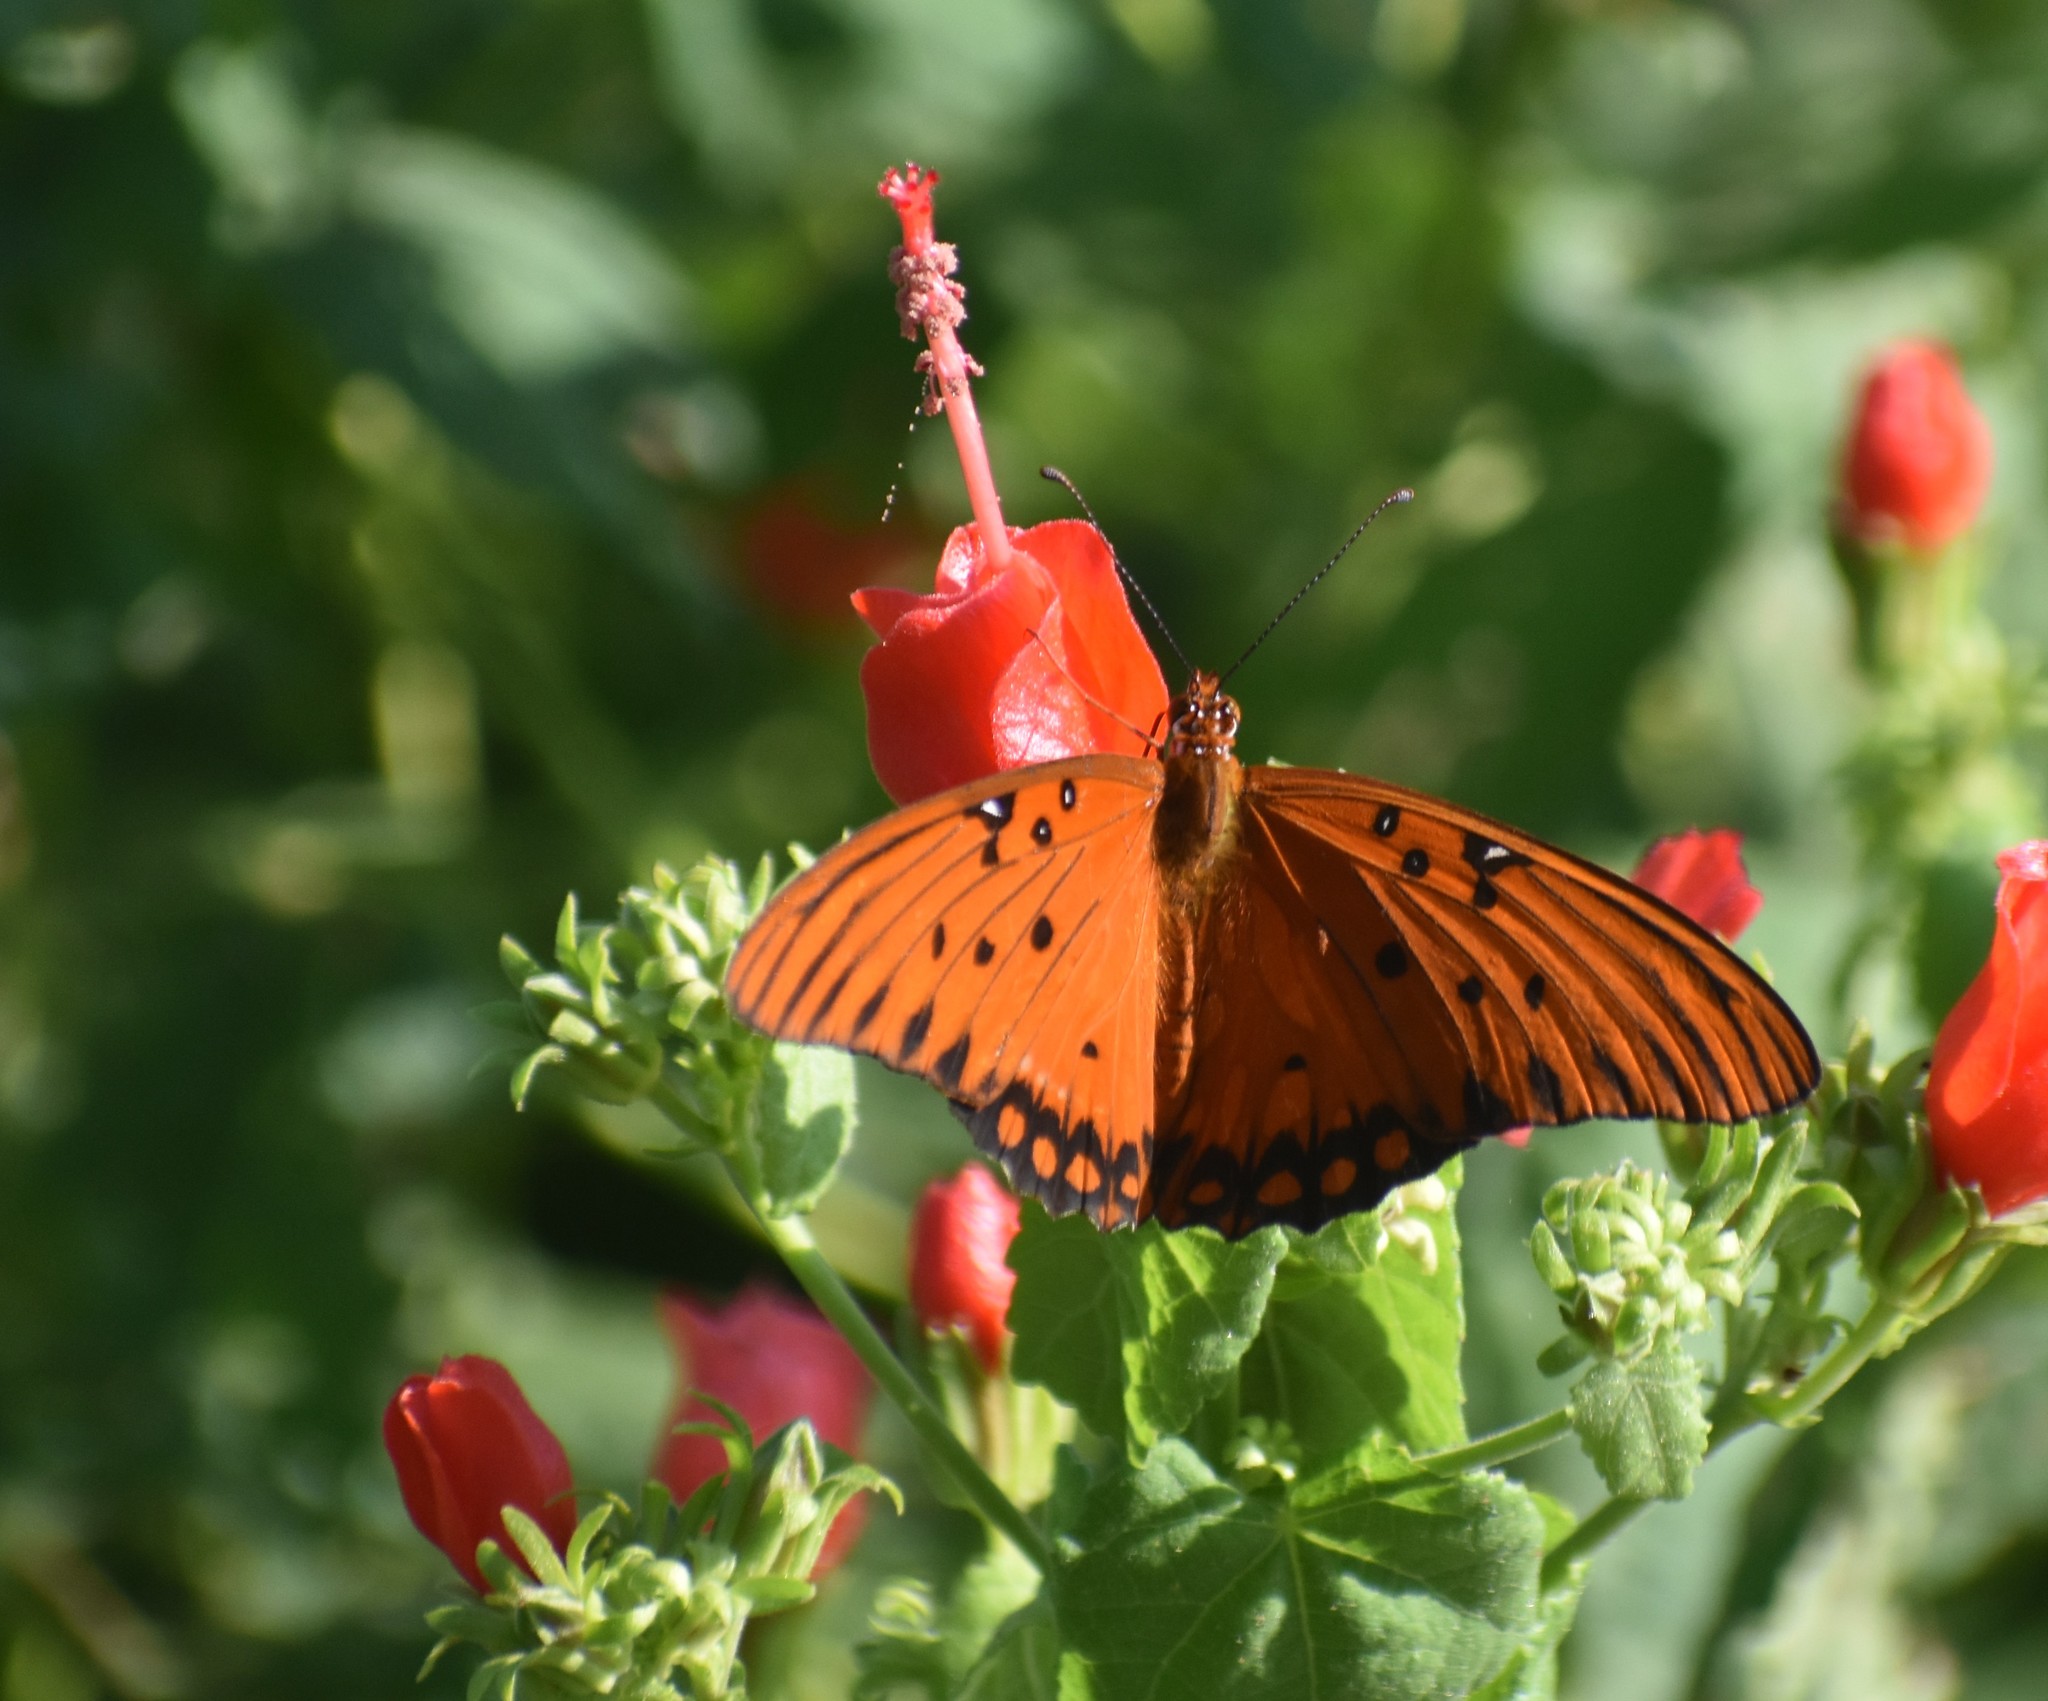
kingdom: Animalia
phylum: Arthropoda
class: Insecta
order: Lepidoptera
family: Nymphalidae
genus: Dione
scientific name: Dione vanillae
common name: Gulf fritillary
